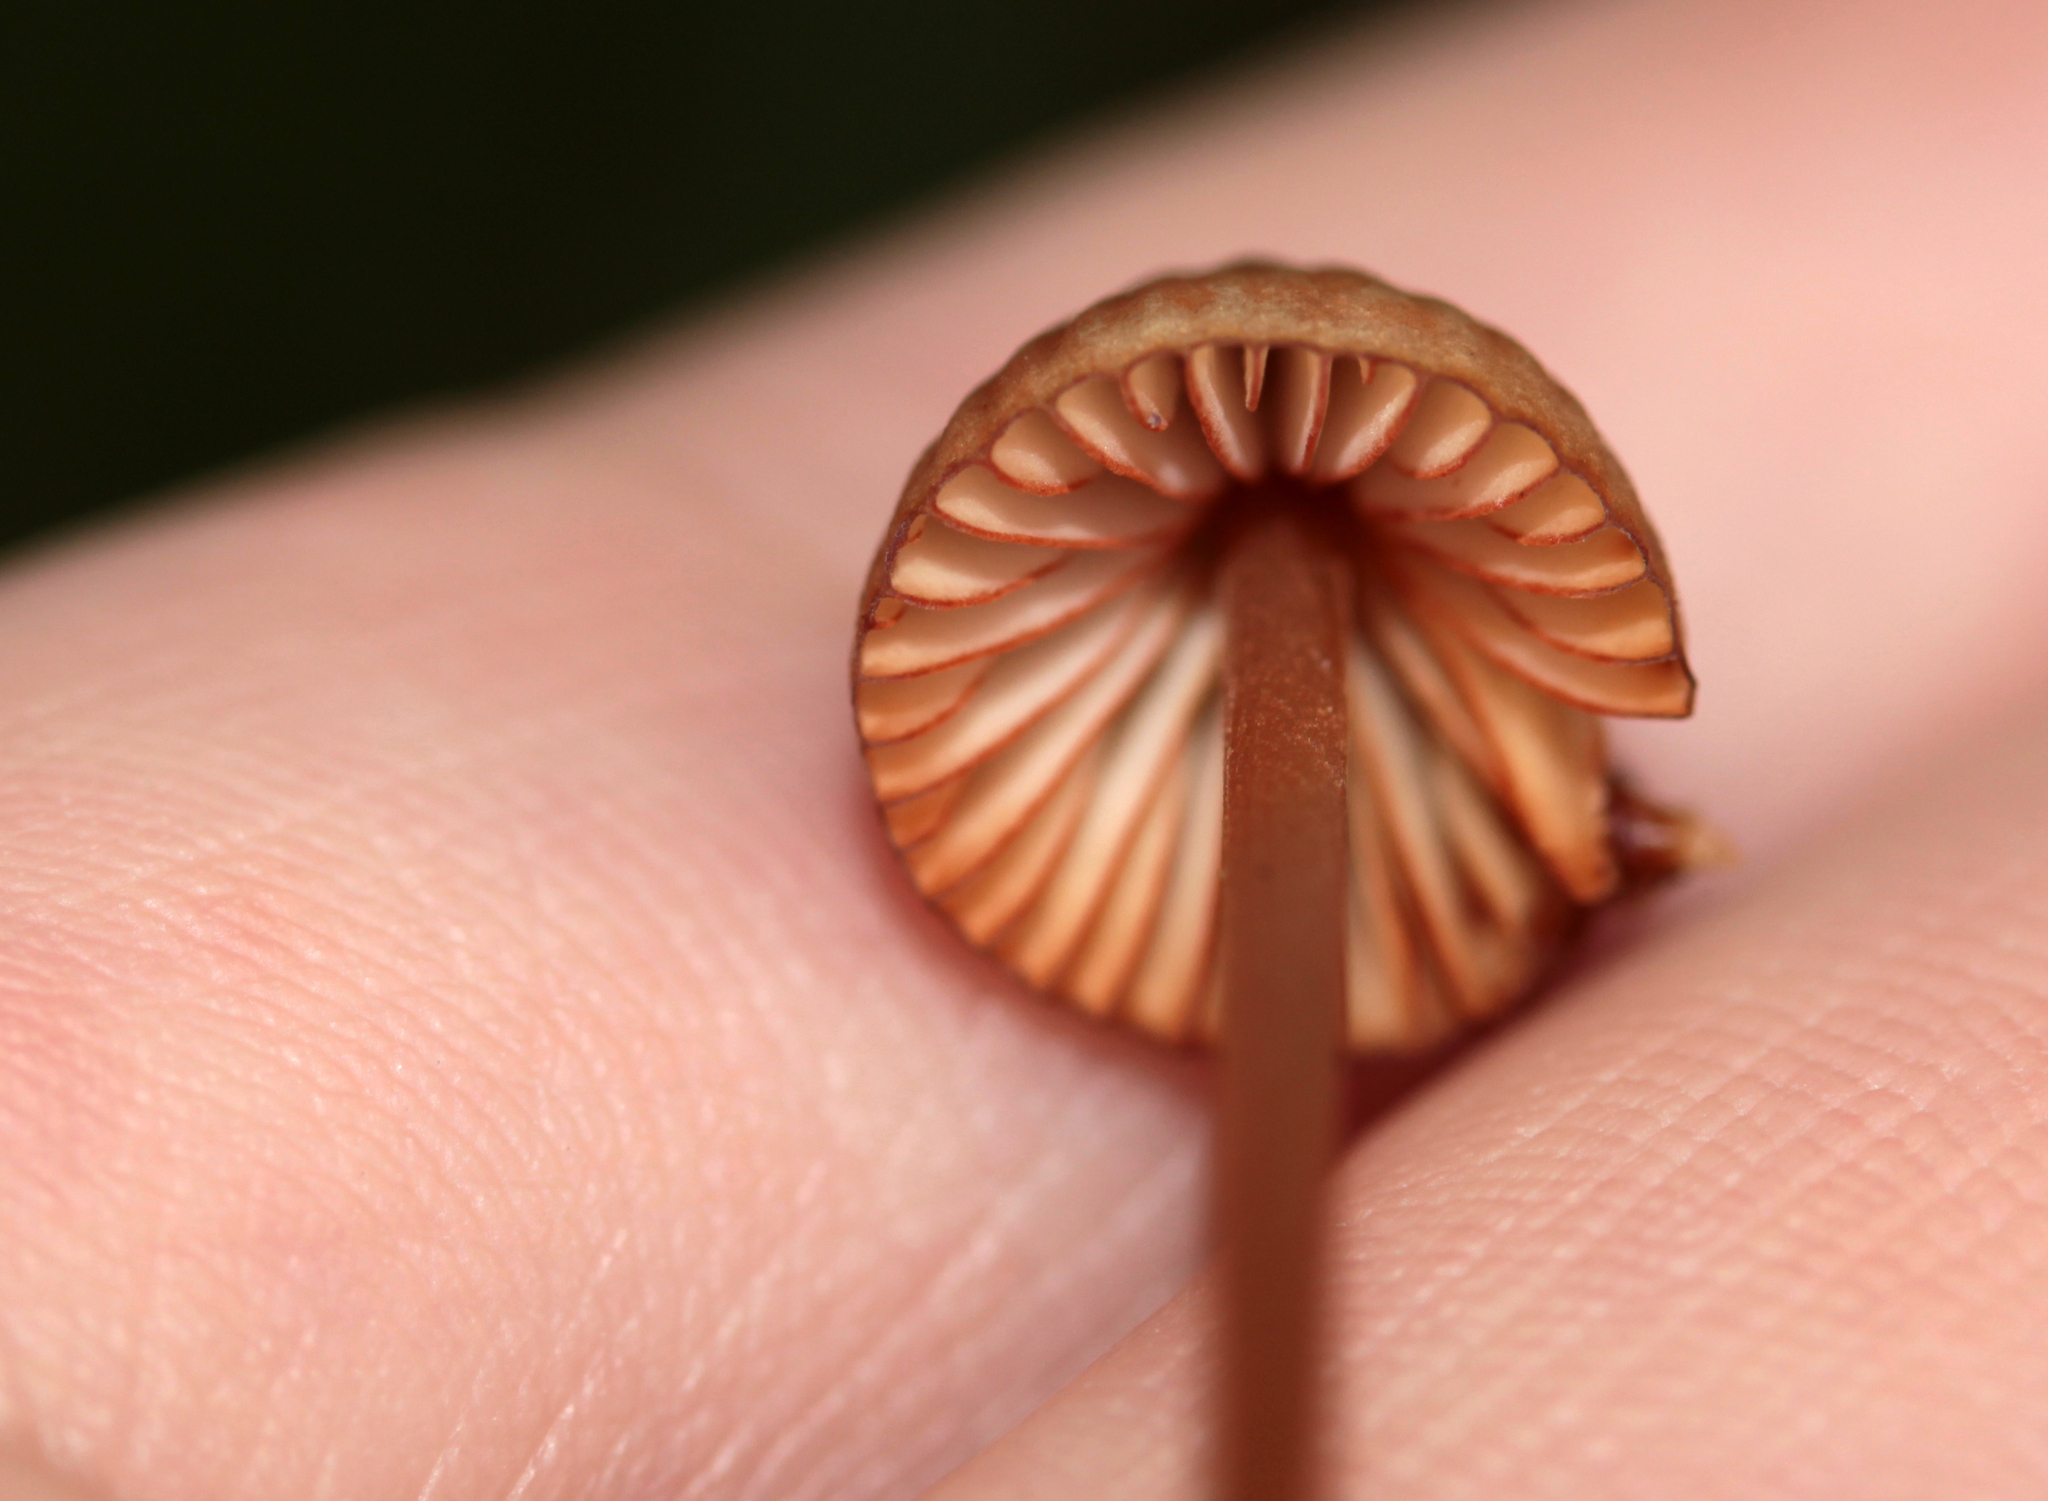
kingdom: Fungi
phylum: Basidiomycota
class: Agaricomycetes
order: Agaricales
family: Mycenaceae
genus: Mycena
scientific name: Mycena
